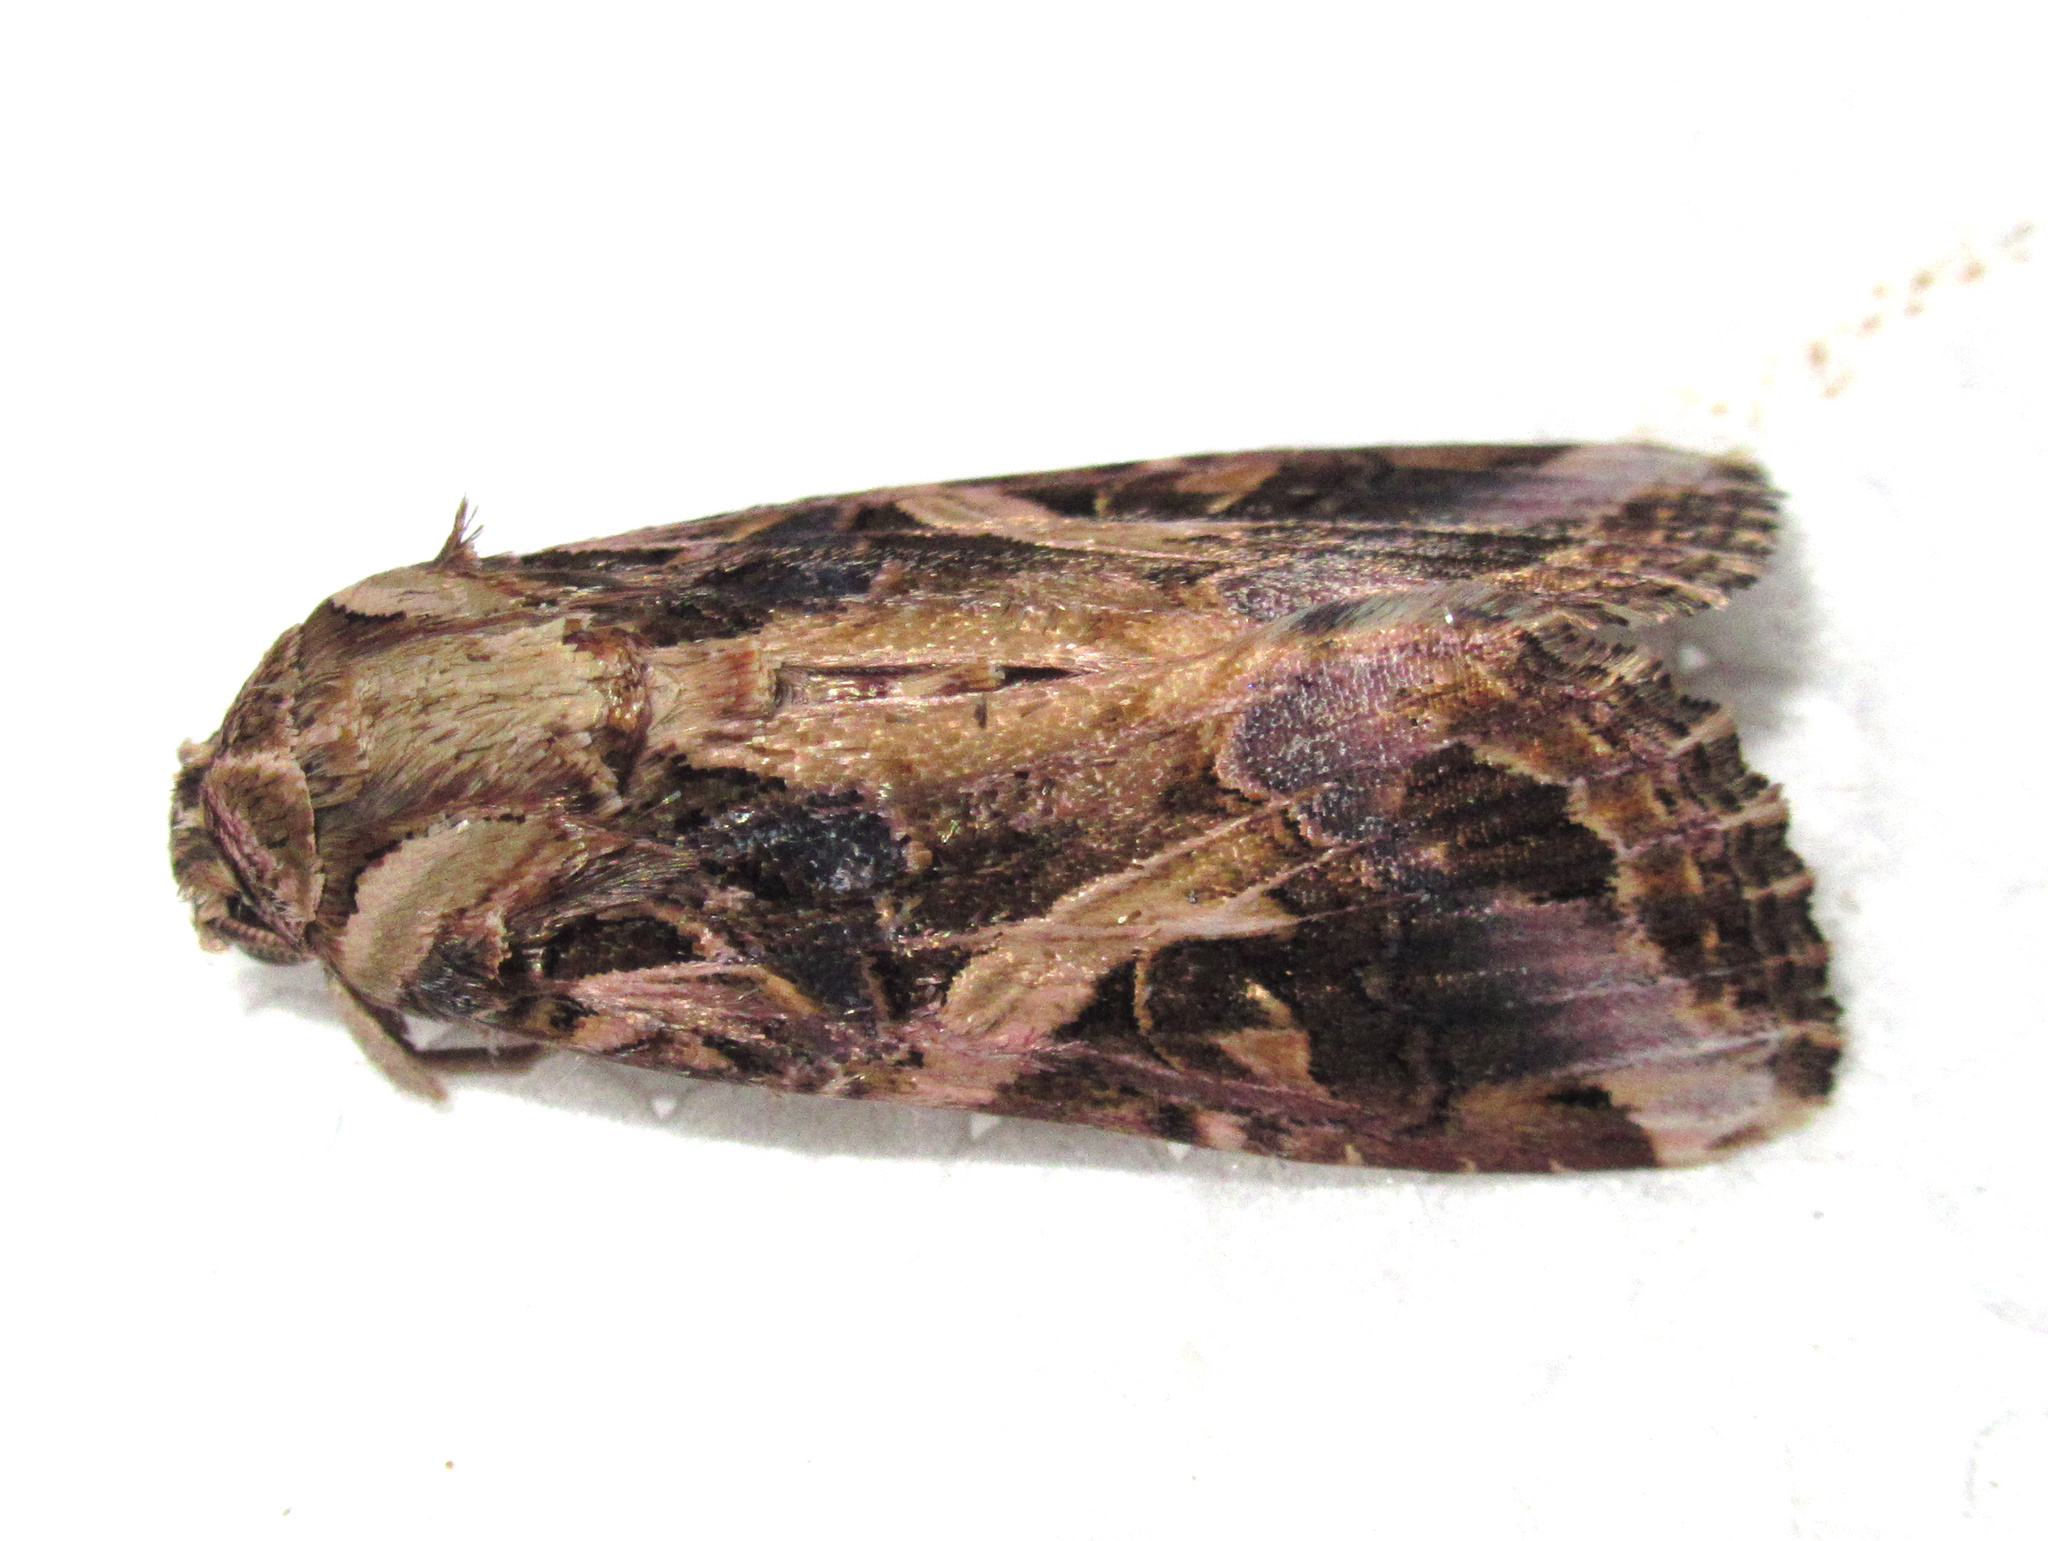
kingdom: Animalia
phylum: Arthropoda
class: Insecta
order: Lepidoptera
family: Noctuidae
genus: Spodoptera
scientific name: Spodoptera litura
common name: Asian cotton leafworm
